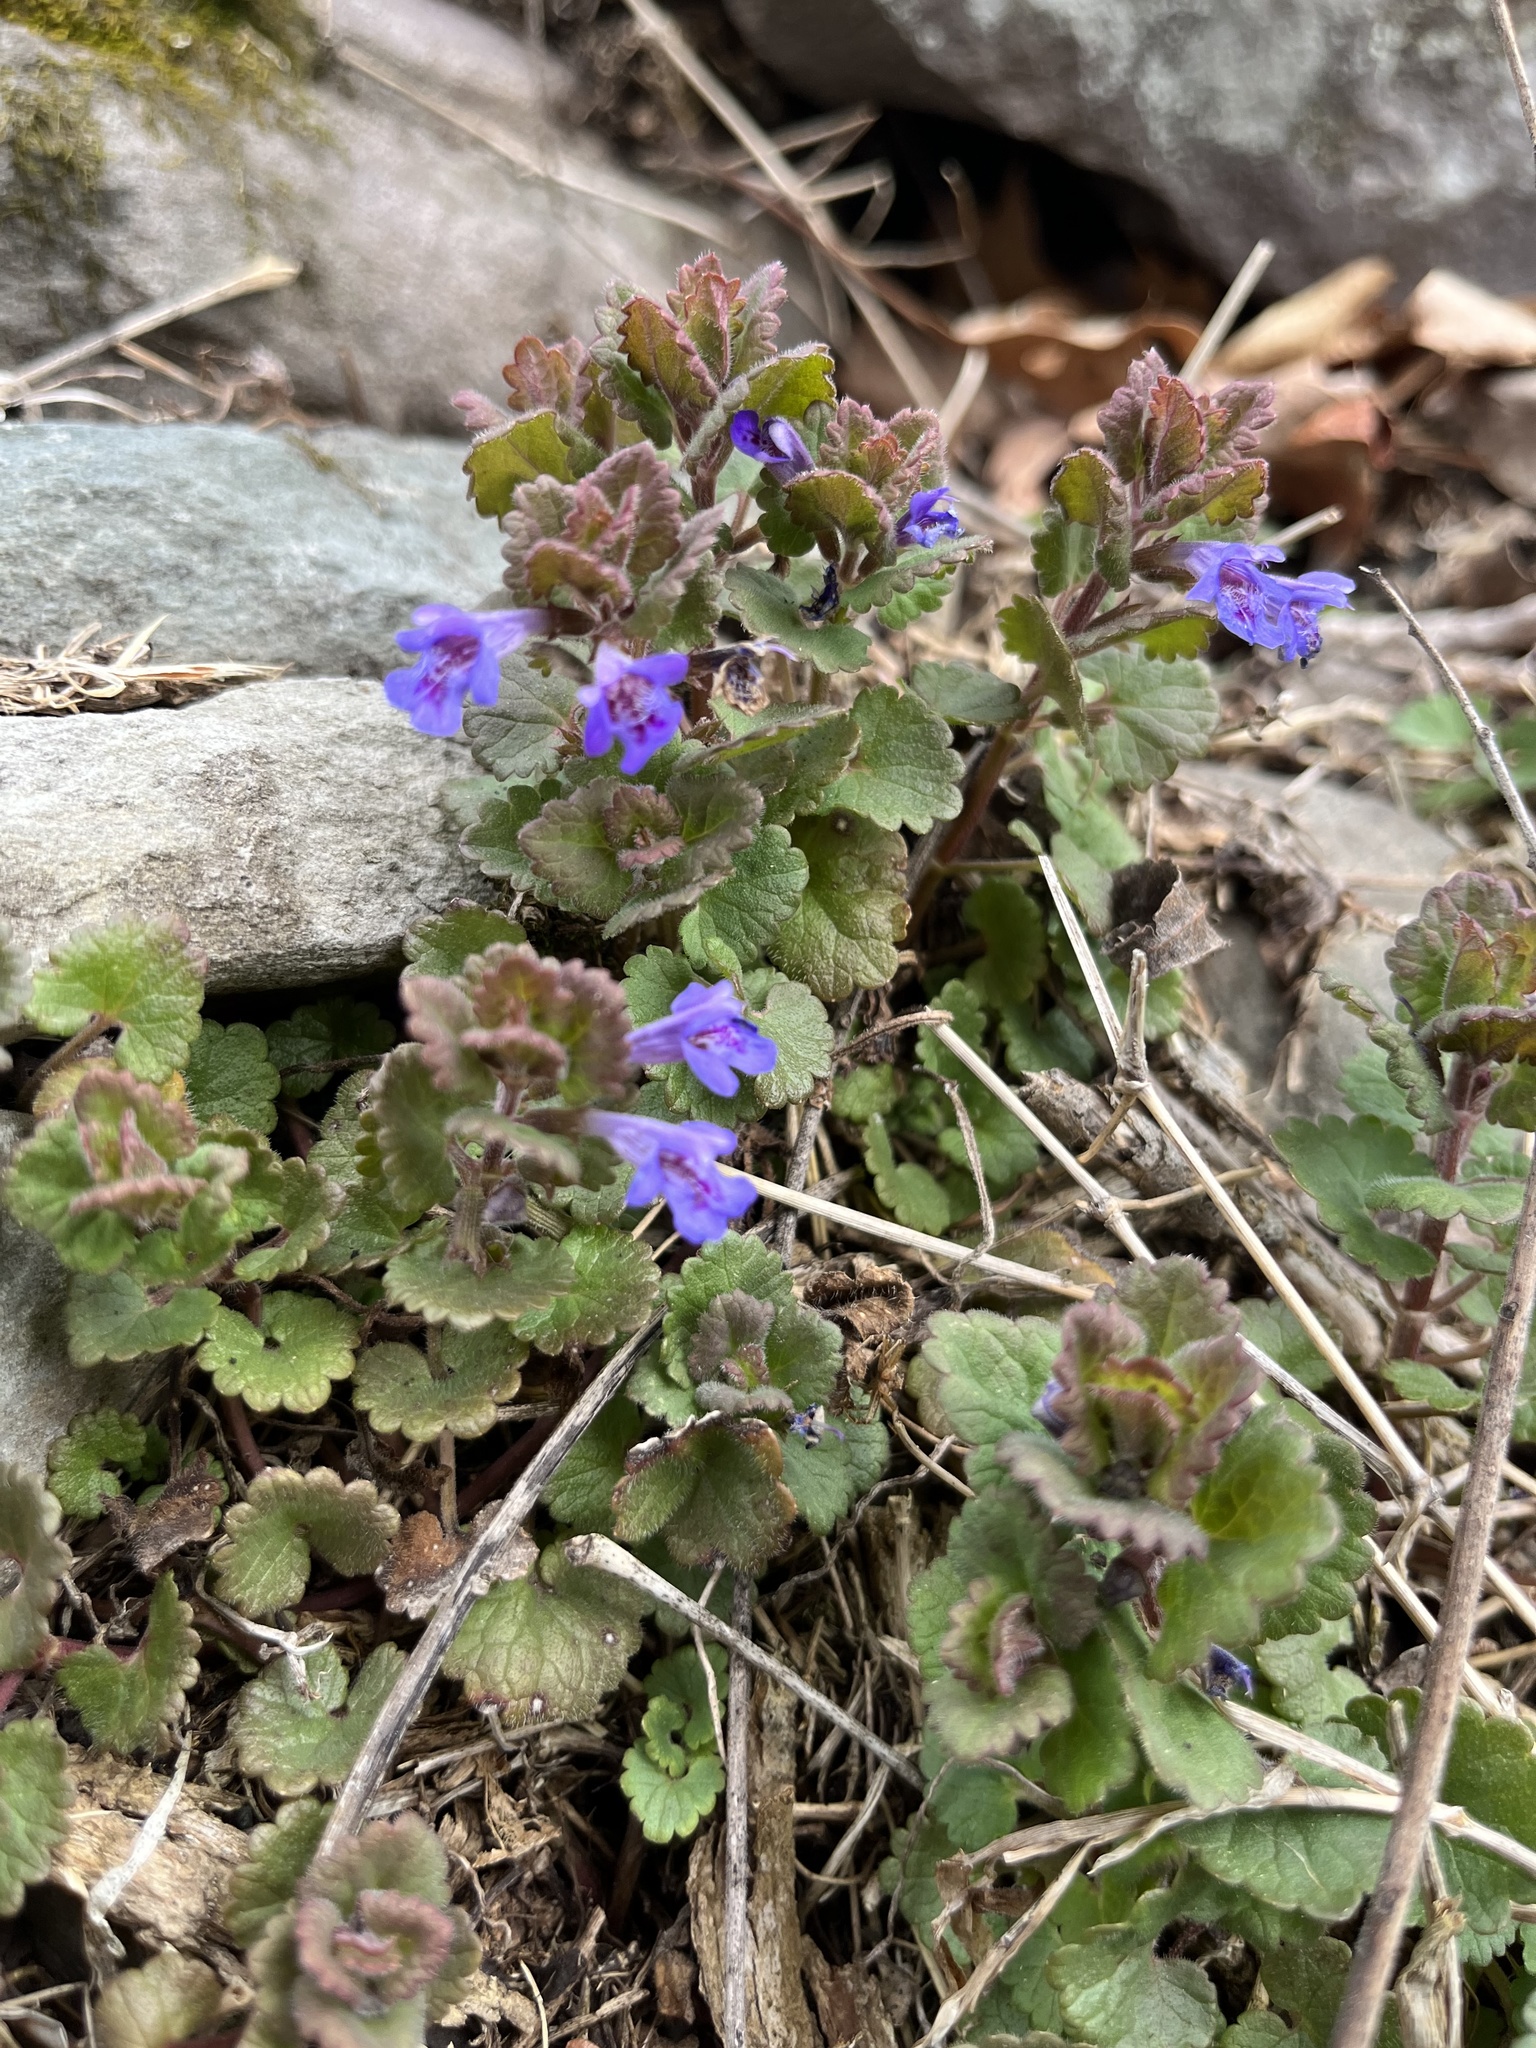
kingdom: Plantae
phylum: Tracheophyta
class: Magnoliopsida
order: Lamiales
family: Lamiaceae
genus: Glechoma
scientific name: Glechoma hederacea
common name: Ground ivy
